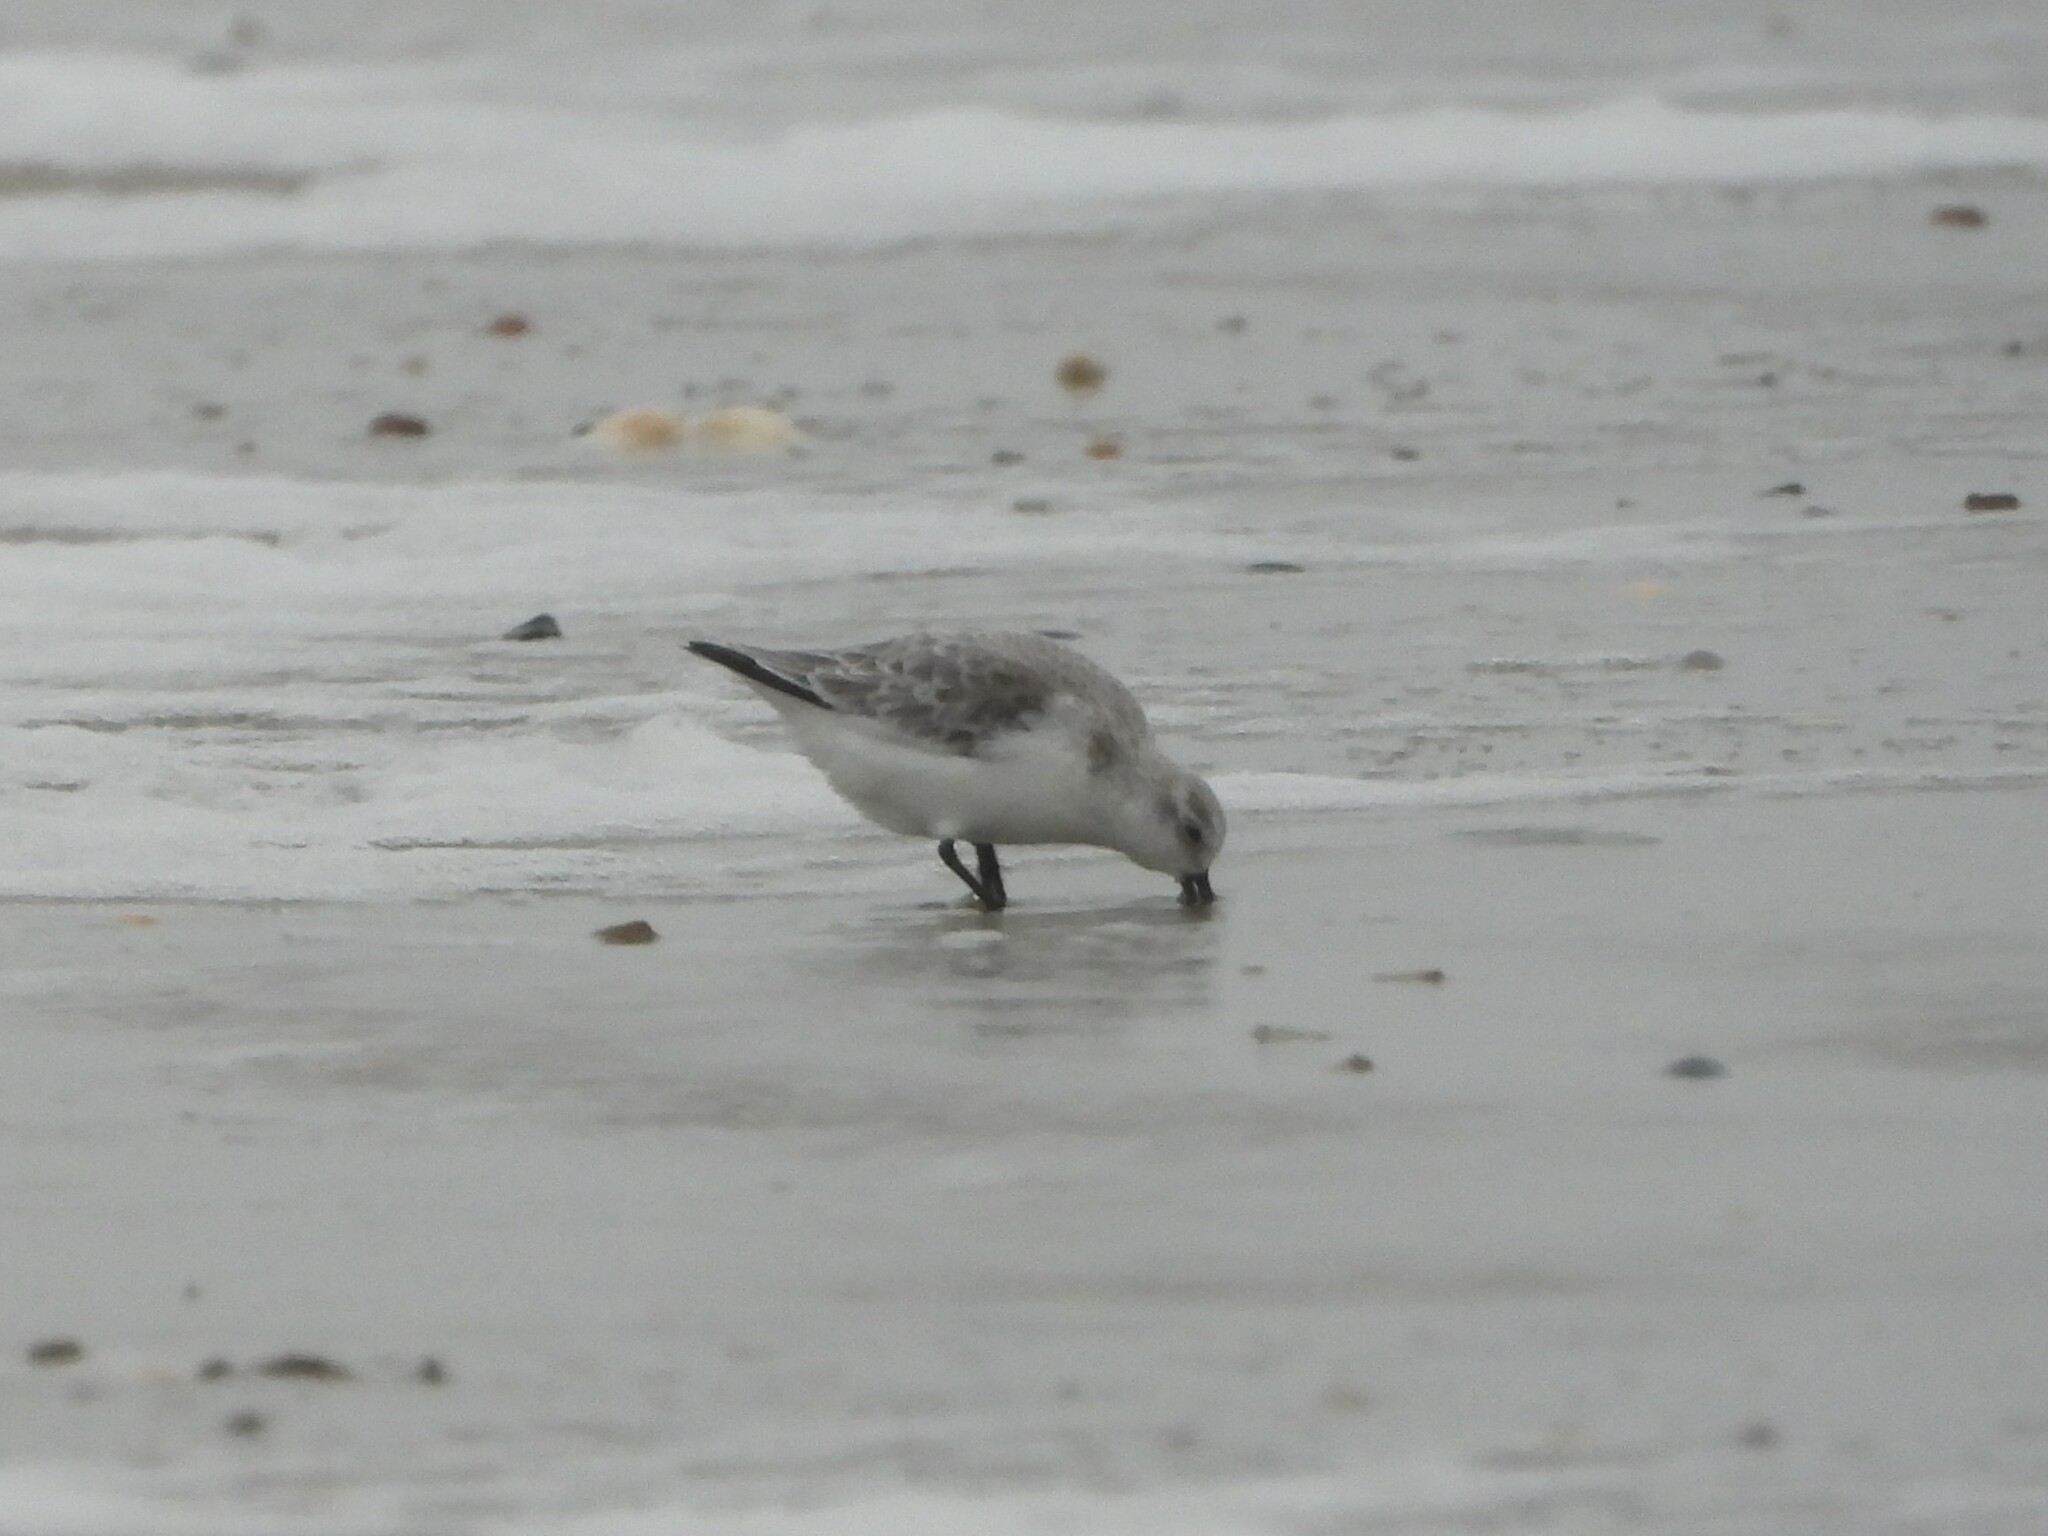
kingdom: Animalia
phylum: Chordata
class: Aves
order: Charadriiformes
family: Scolopacidae
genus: Calidris
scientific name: Calidris alba
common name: Sanderling
